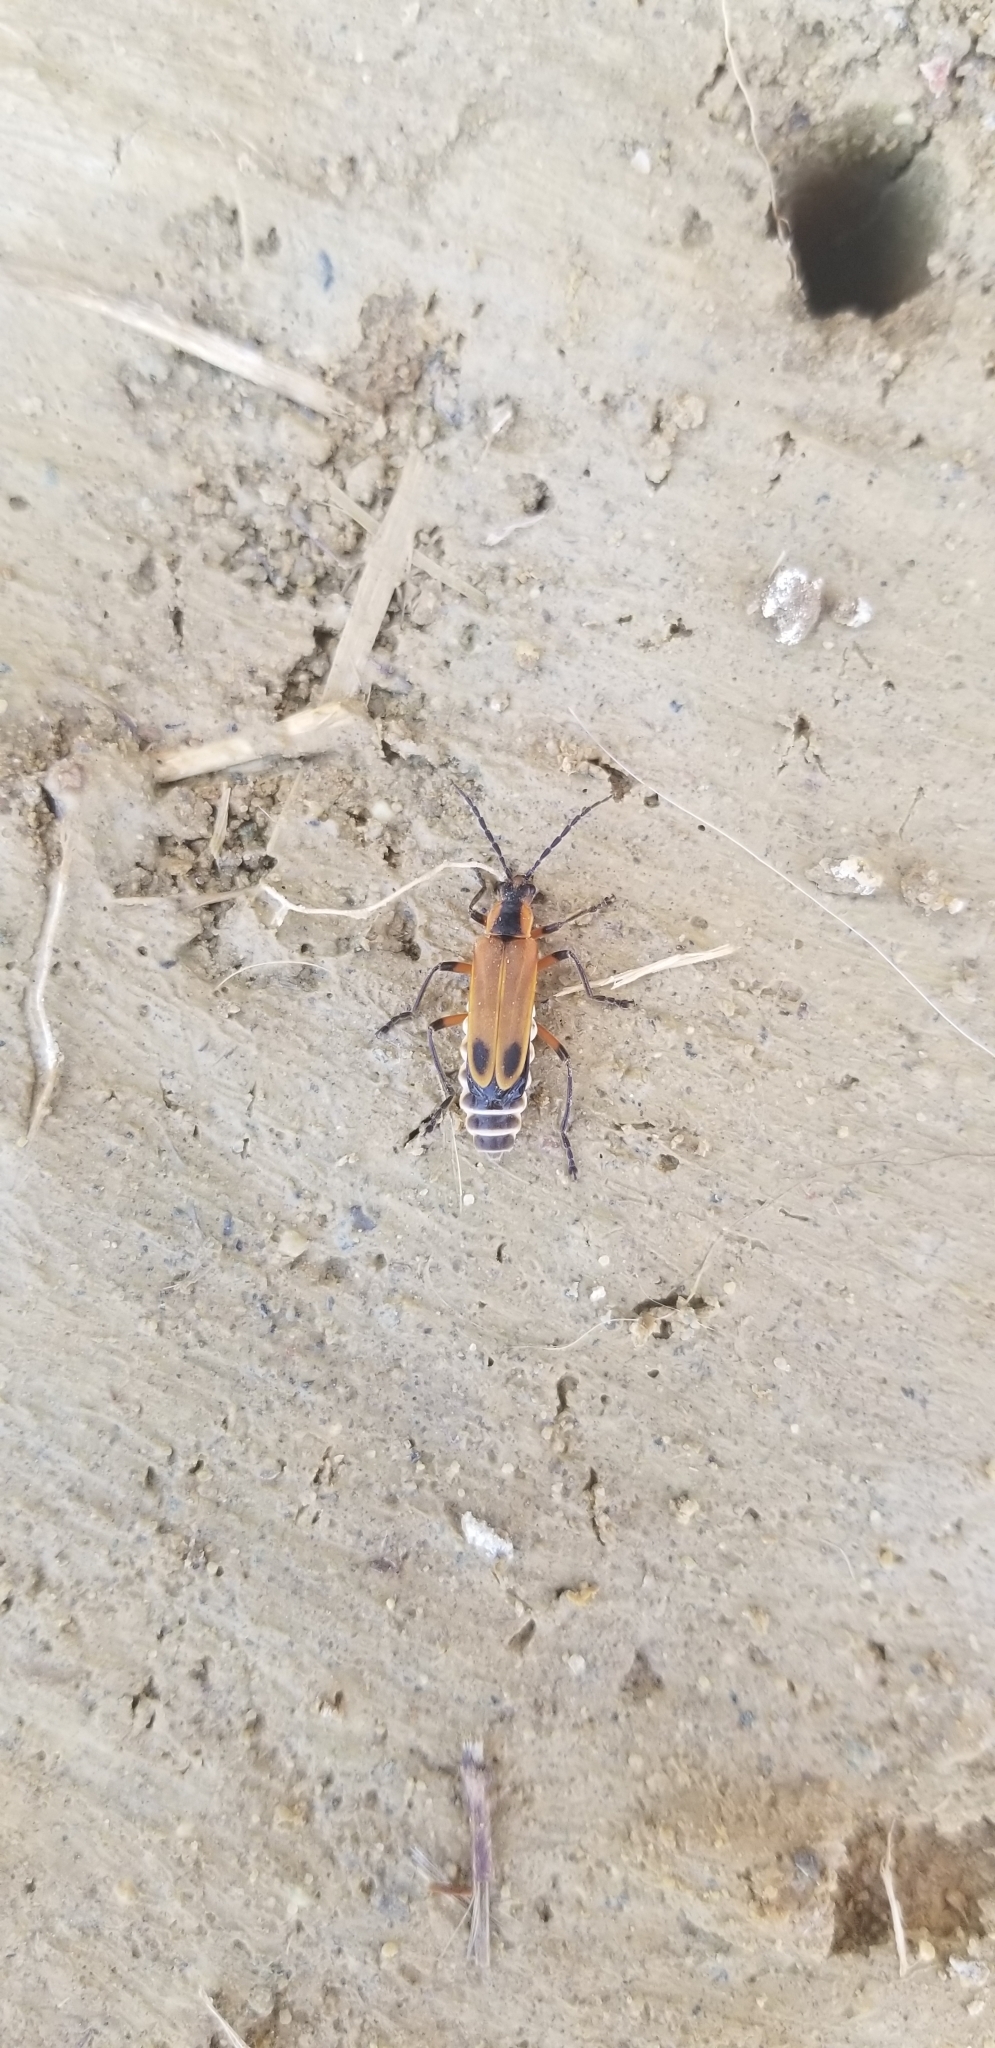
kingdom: Animalia
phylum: Arthropoda
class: Insecta
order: Coleoptera
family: Cantharidae
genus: Chauliognathus
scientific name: Chauliognathus marginatus
